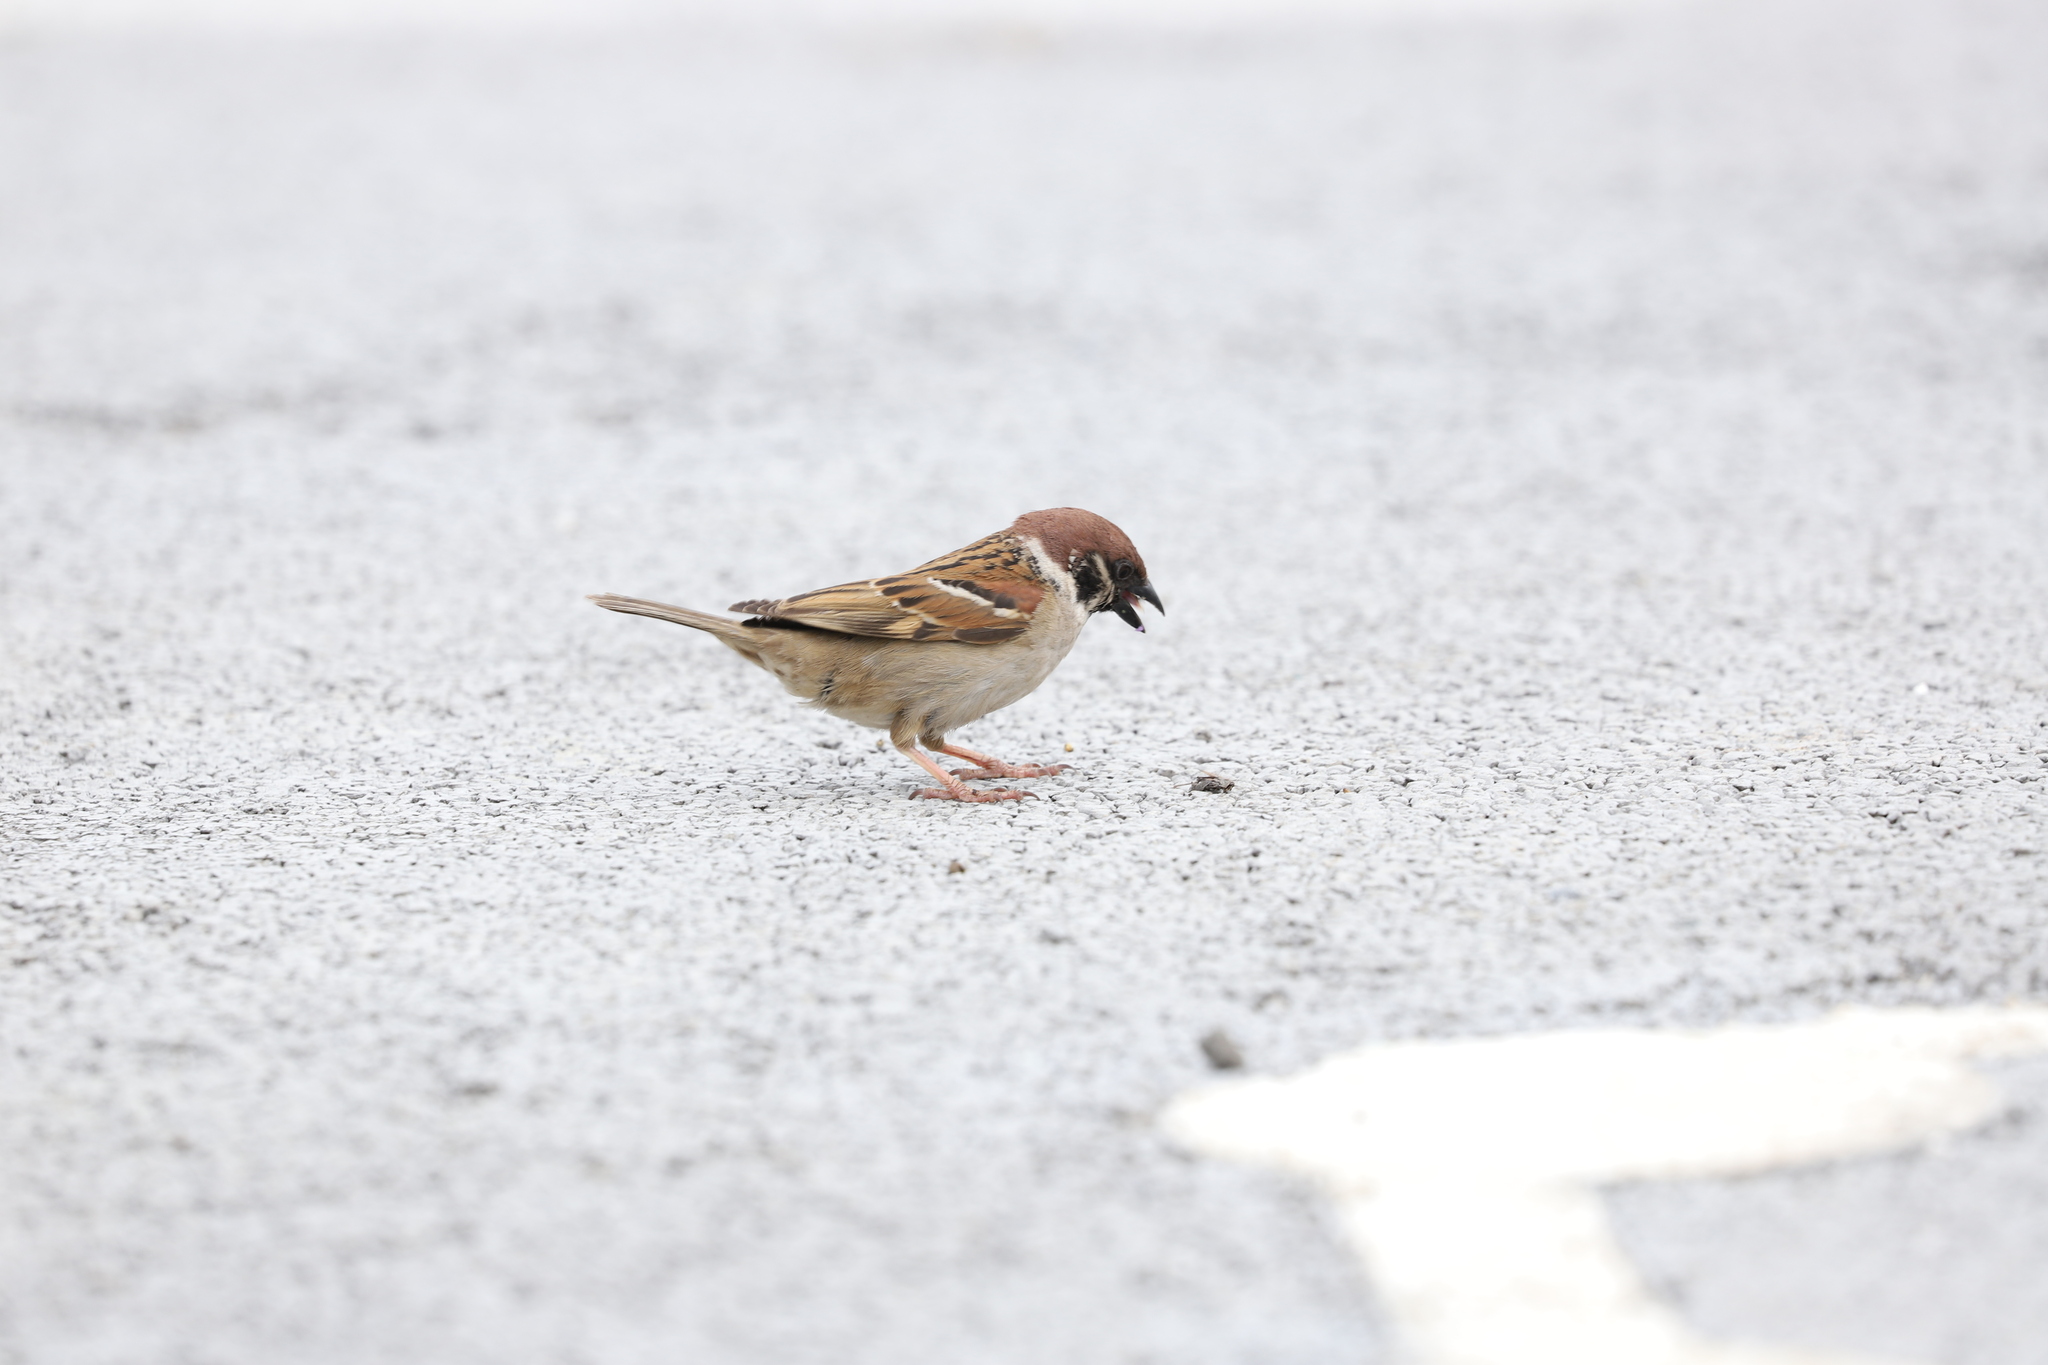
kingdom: Animalia
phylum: Chordata
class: Aves
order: Passeriformes
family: Passeridae
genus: Passer
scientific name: Passer montanus
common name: Eurasian tree sparrow
